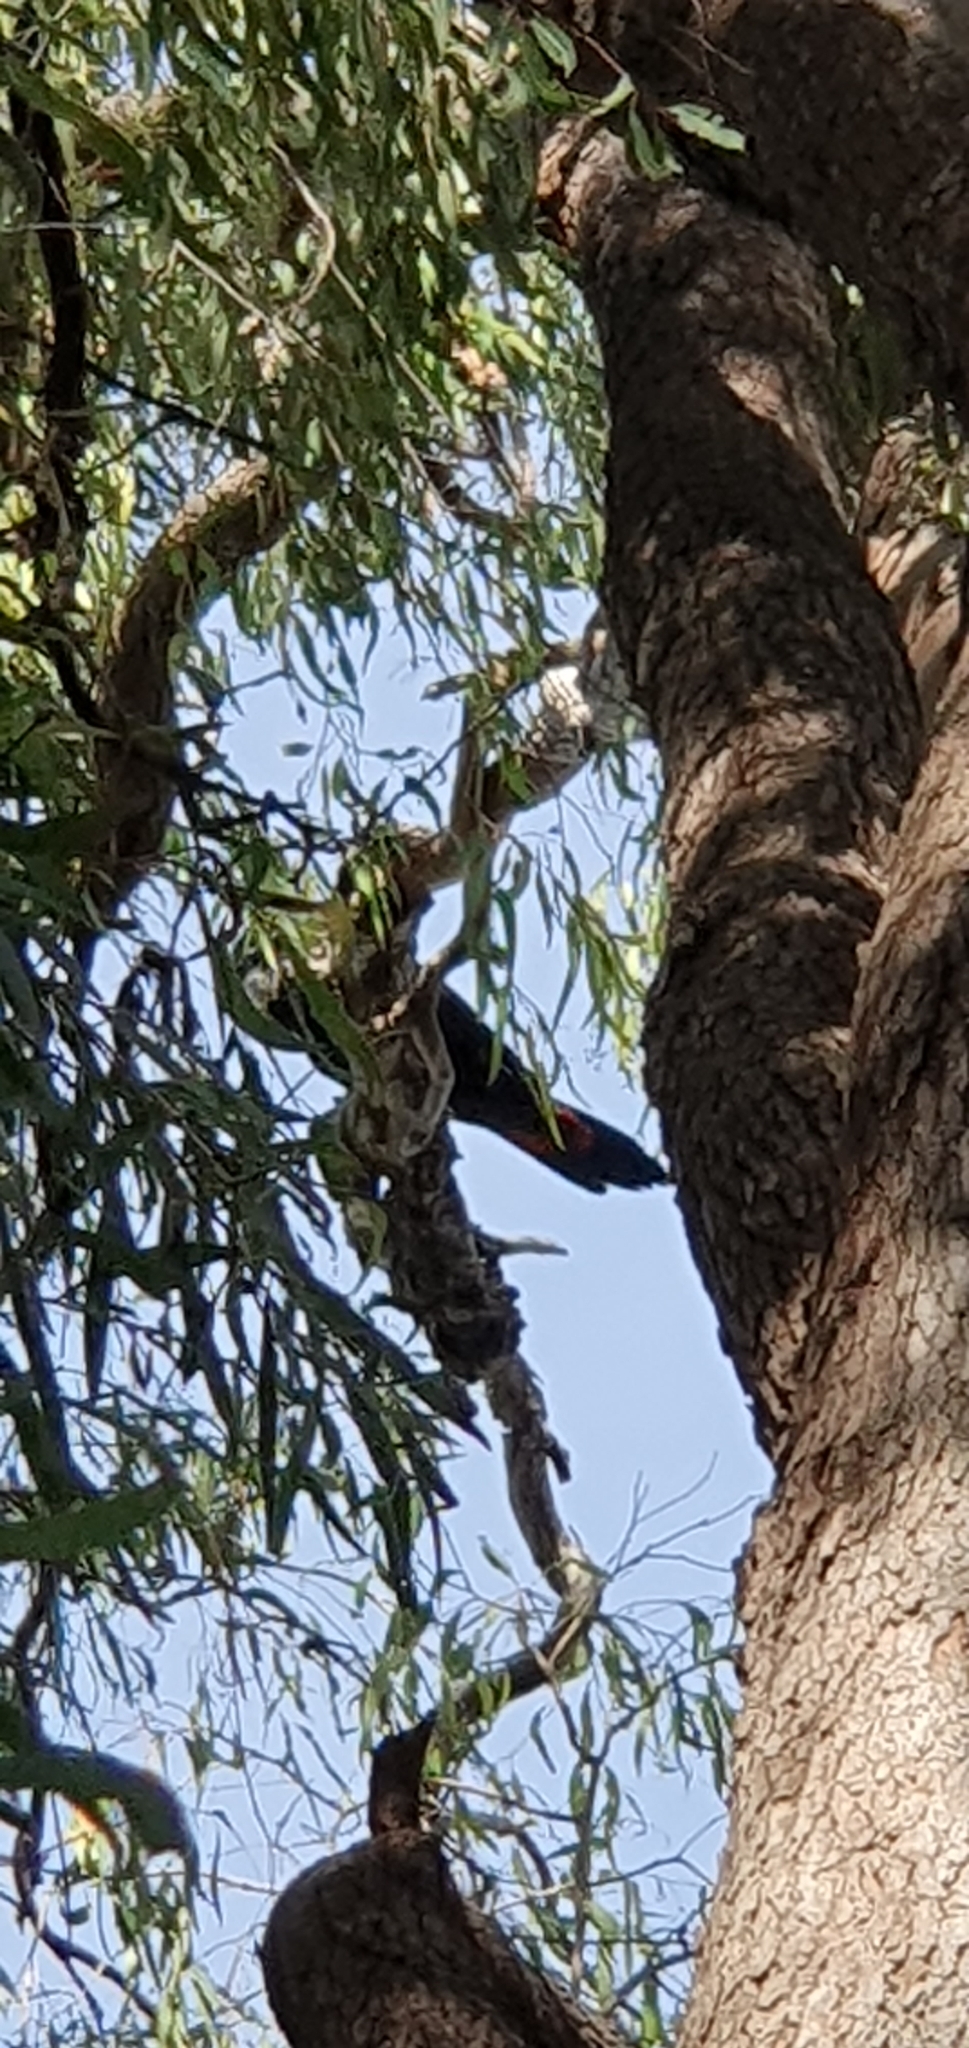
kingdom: Animalia
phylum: Chordata
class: Aves
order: Psittaciformes
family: Psittacidae
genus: Calyptorhynchus
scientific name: Calyptorhynchus banksii
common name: Red-tailed black cockatoo
